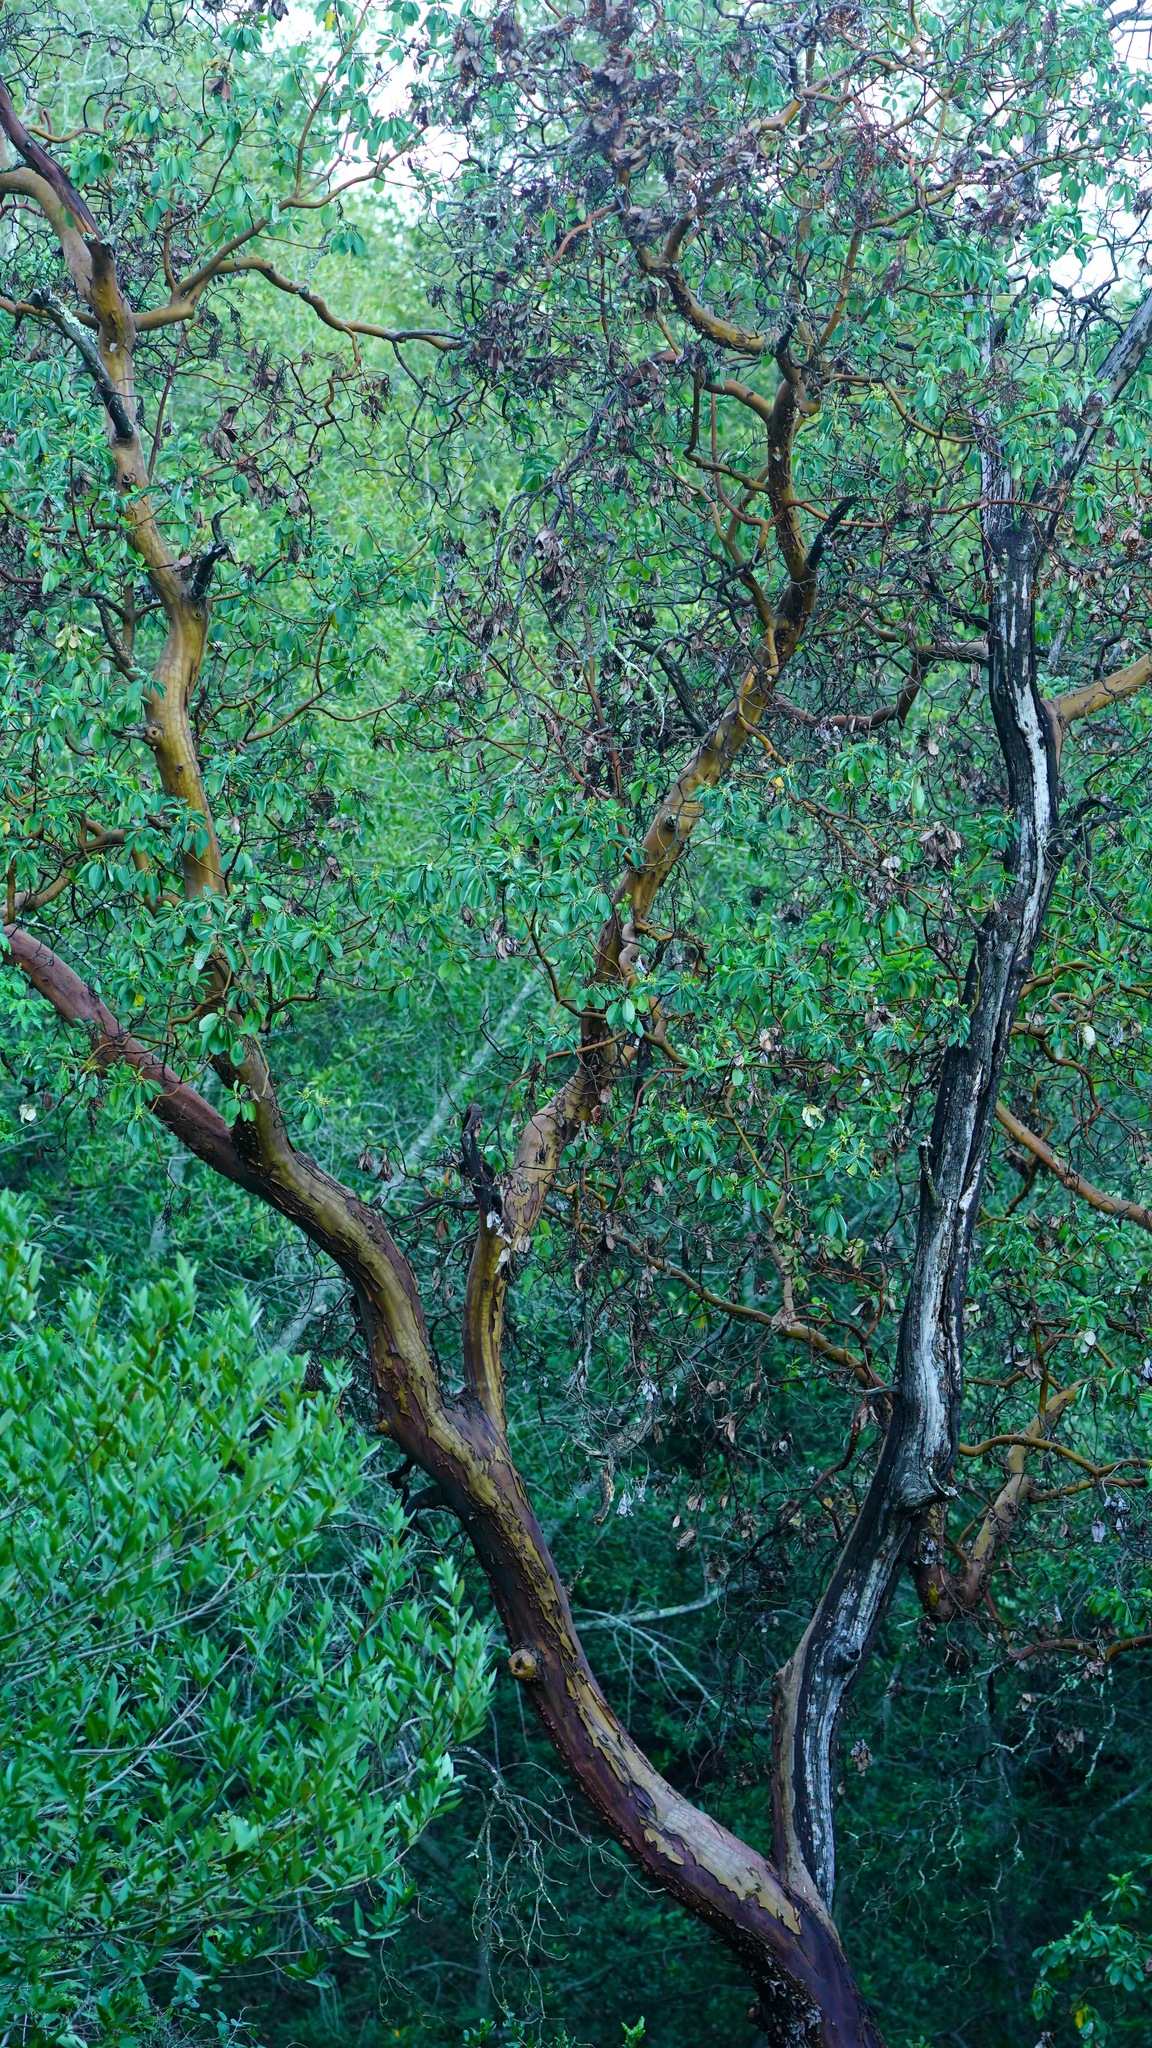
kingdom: Plantae
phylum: Tracheophyta
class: Magnoliopsida
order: Ericales
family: Ericaceae
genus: Arbutus
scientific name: Arbutus menziesii
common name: Pacific madrone
